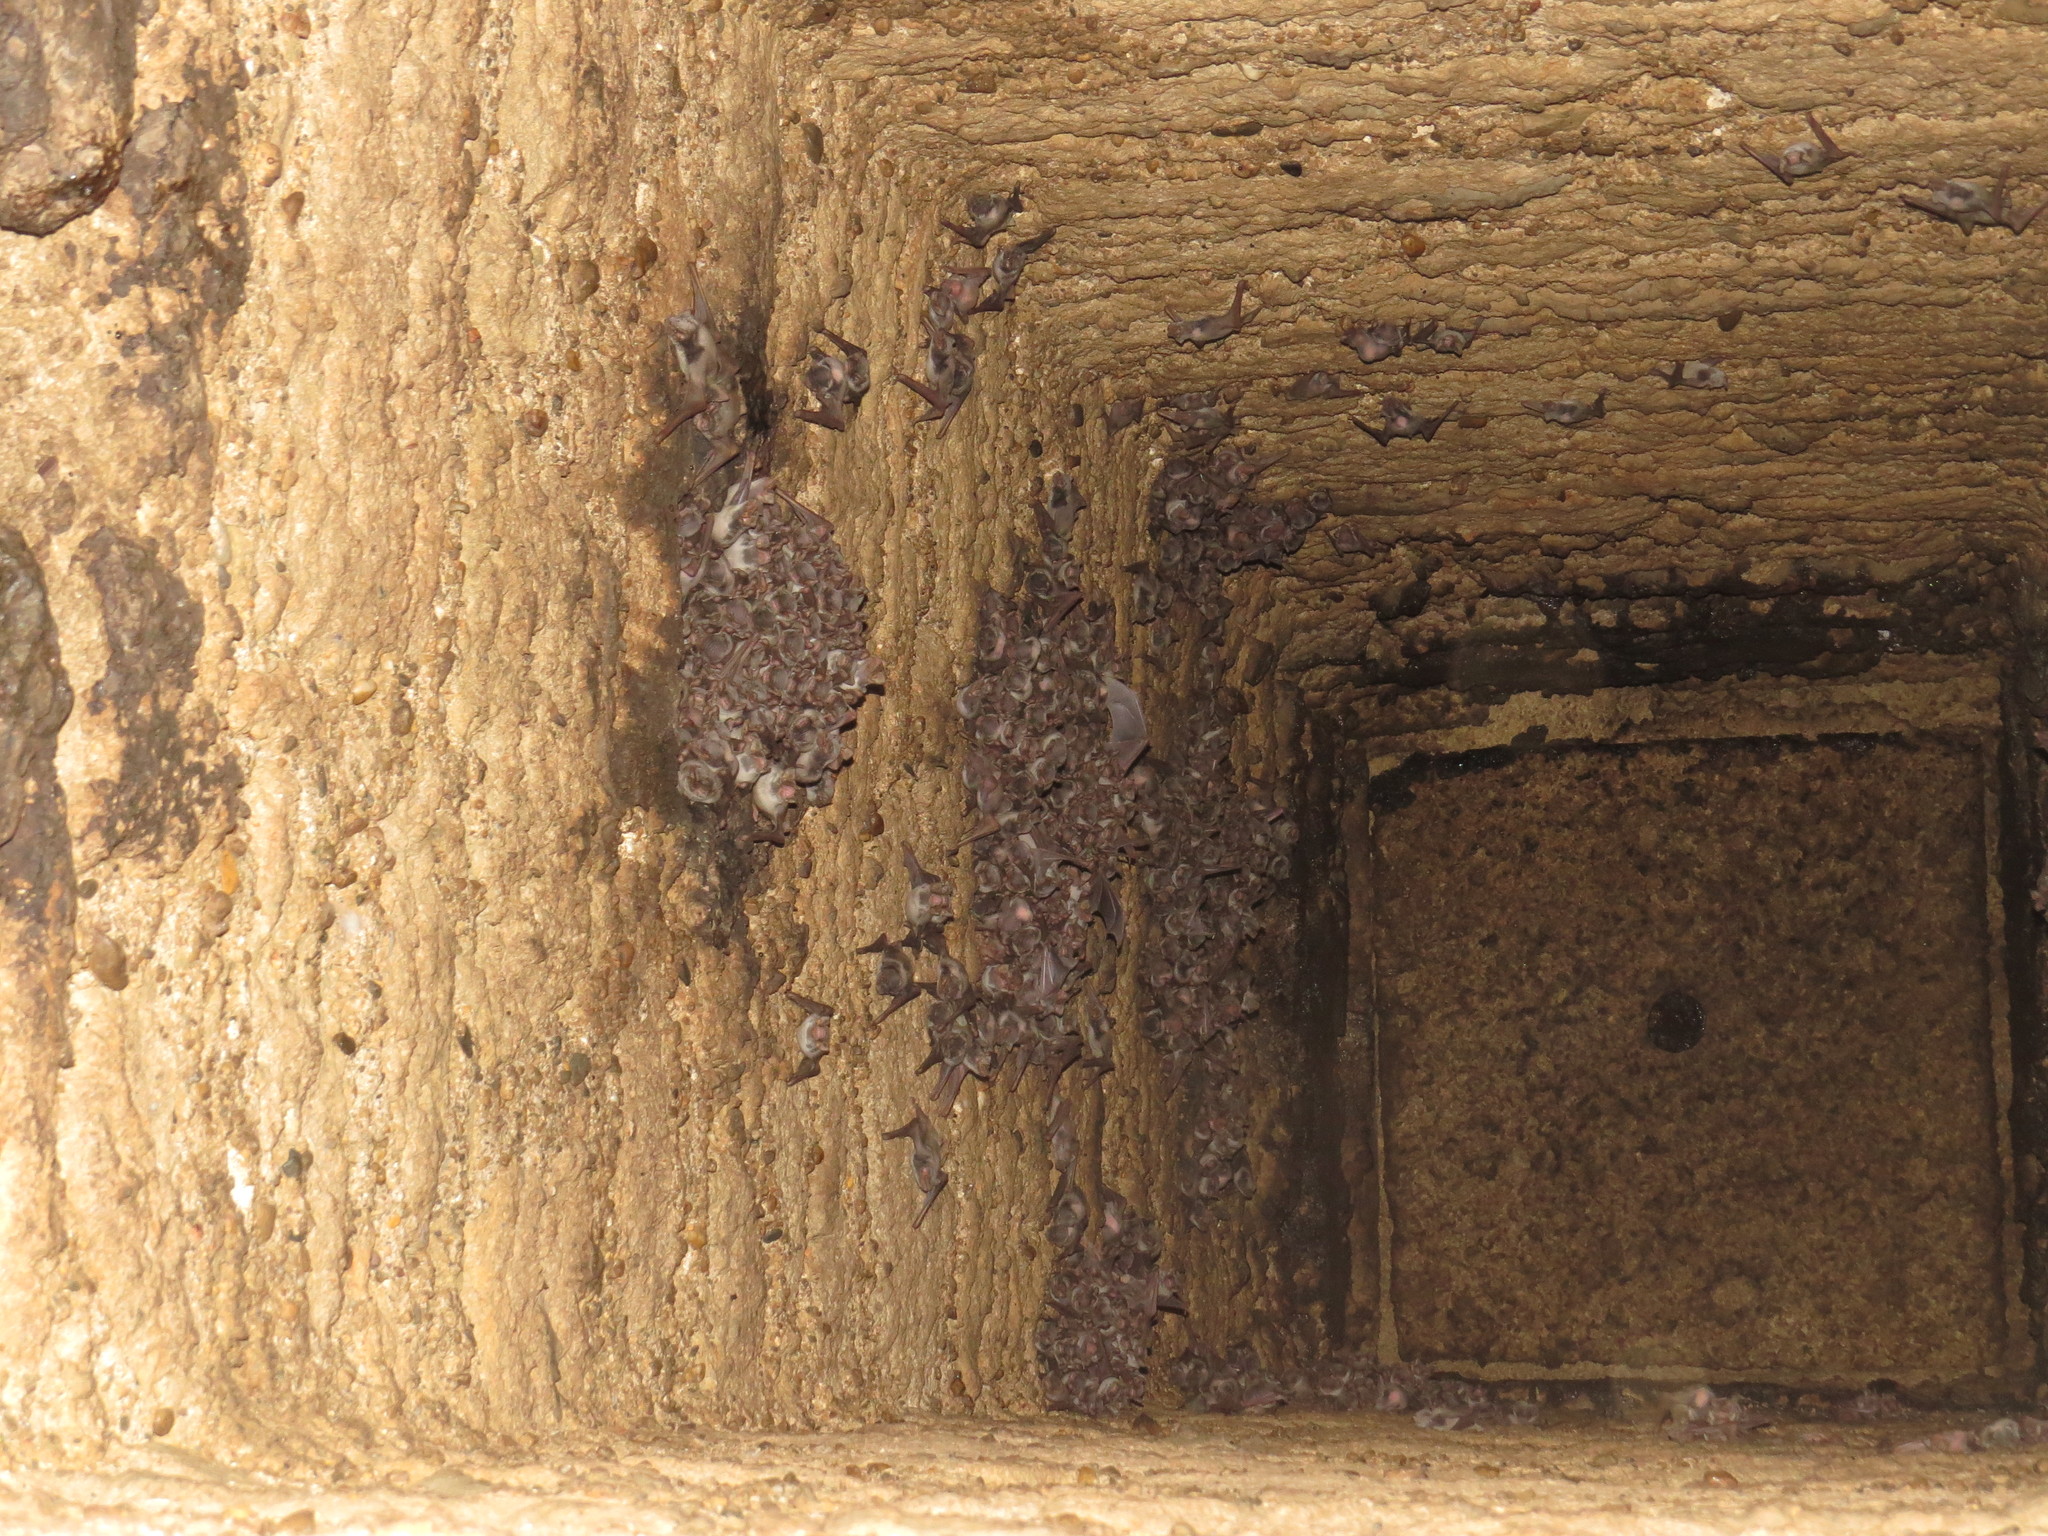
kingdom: Animalia
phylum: Chordata
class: Mammalia
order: Chiroptera
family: Miniopteridae
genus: Miniopterus
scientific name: Miniopterus schreibersii
